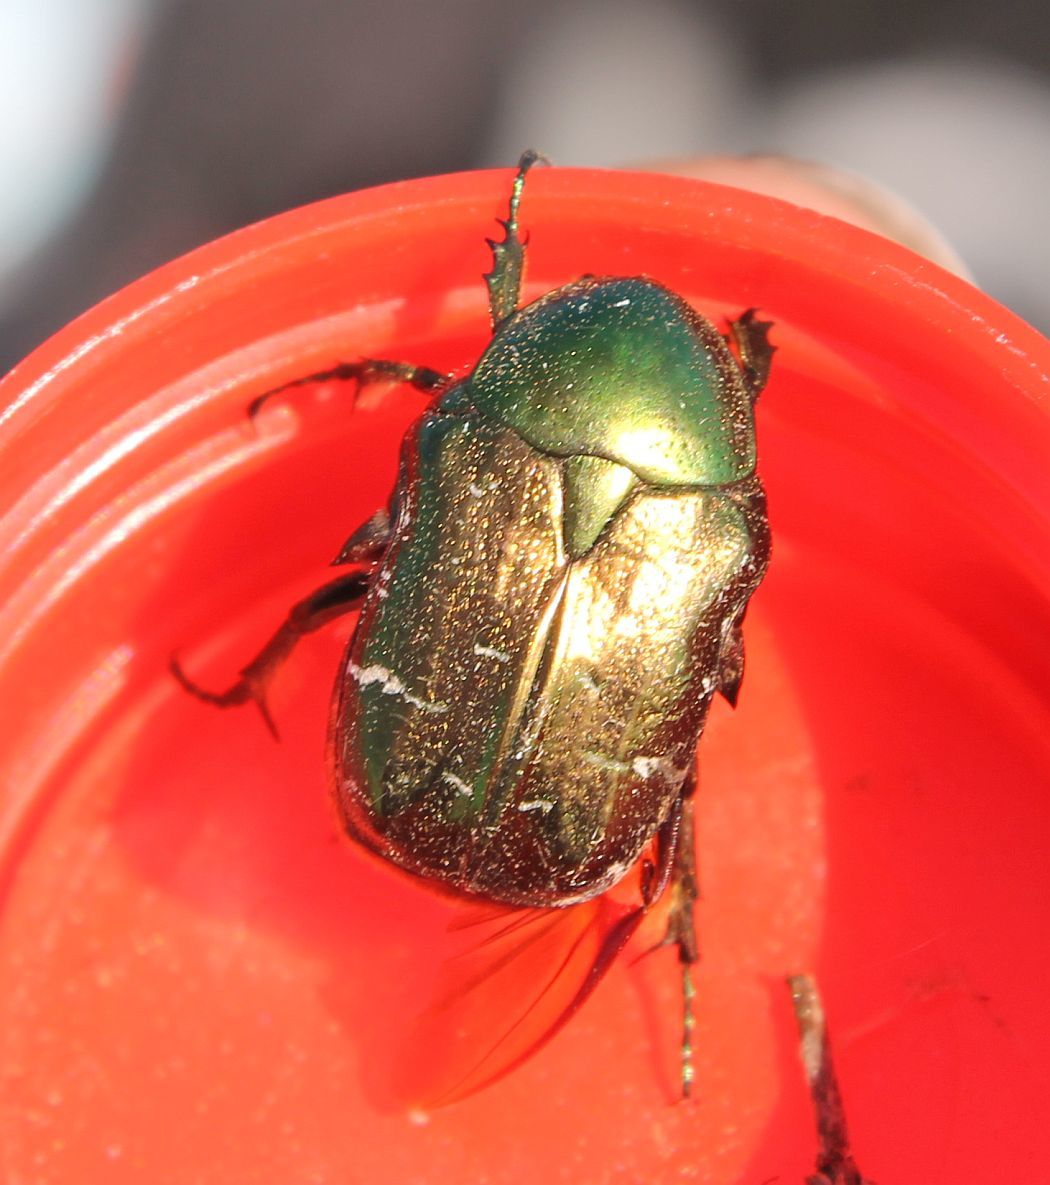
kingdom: Animalia
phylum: Arthropoda
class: Insecta
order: Coleoptera
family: Scarabaeidae
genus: Cetonia
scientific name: Cetonia aurata
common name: Rose chafer
